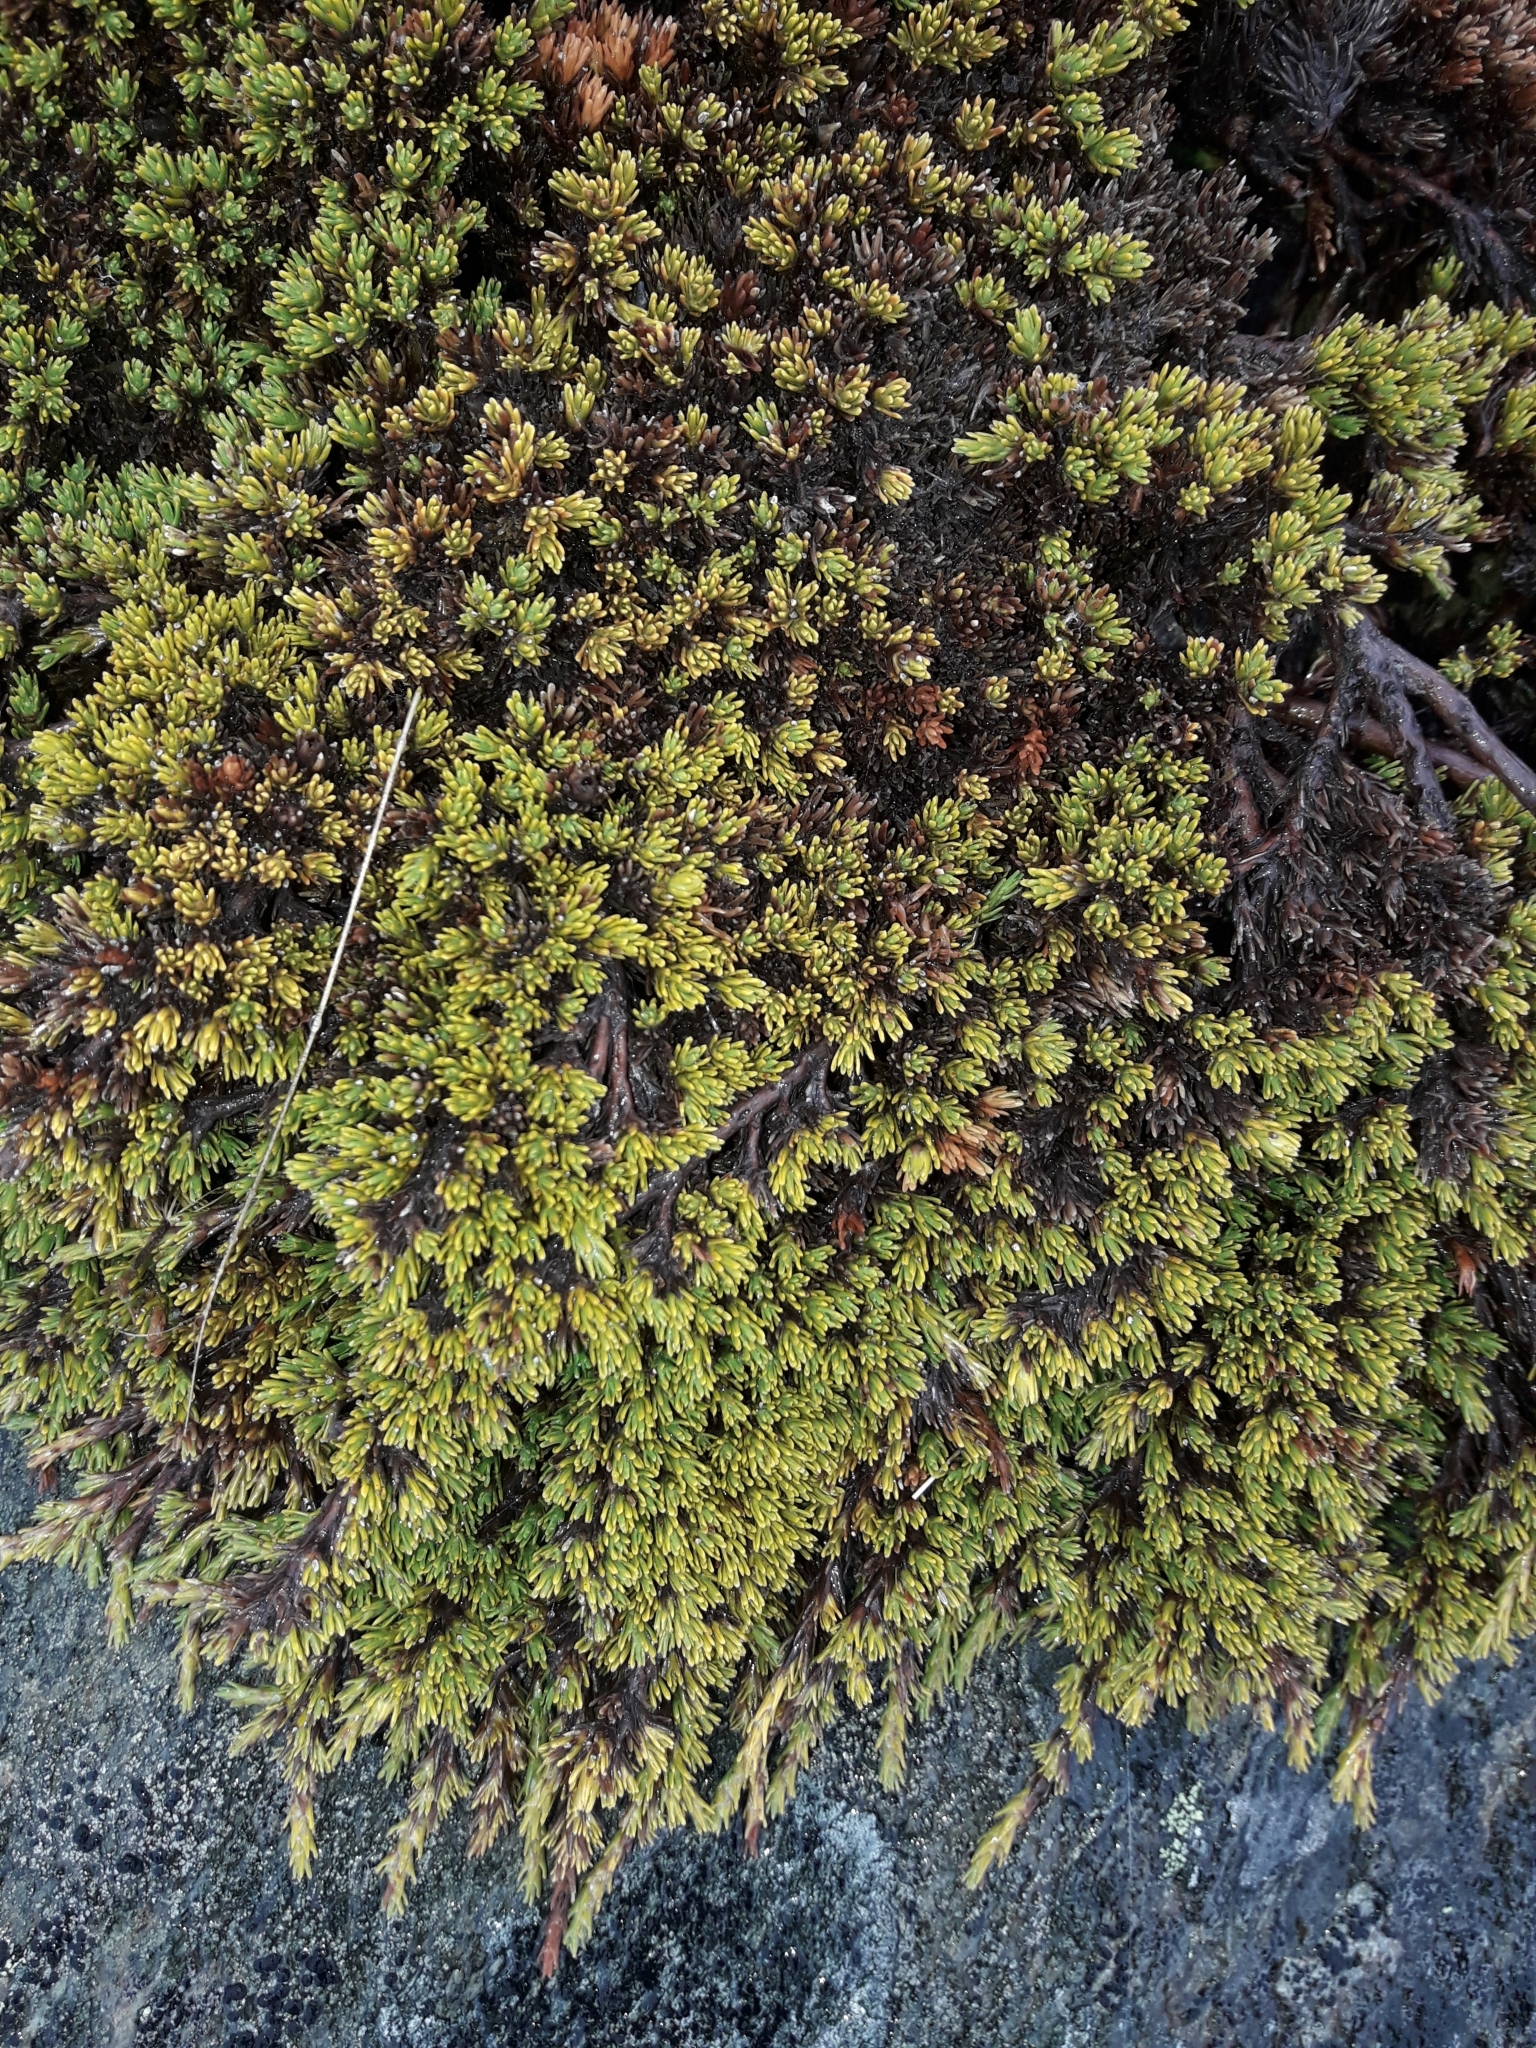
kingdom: Plantae
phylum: Tracheophyta
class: Magnoliopsida
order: Ericales
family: Ericaceae
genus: Dracophyllum
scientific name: Dracophyllum muscoides
